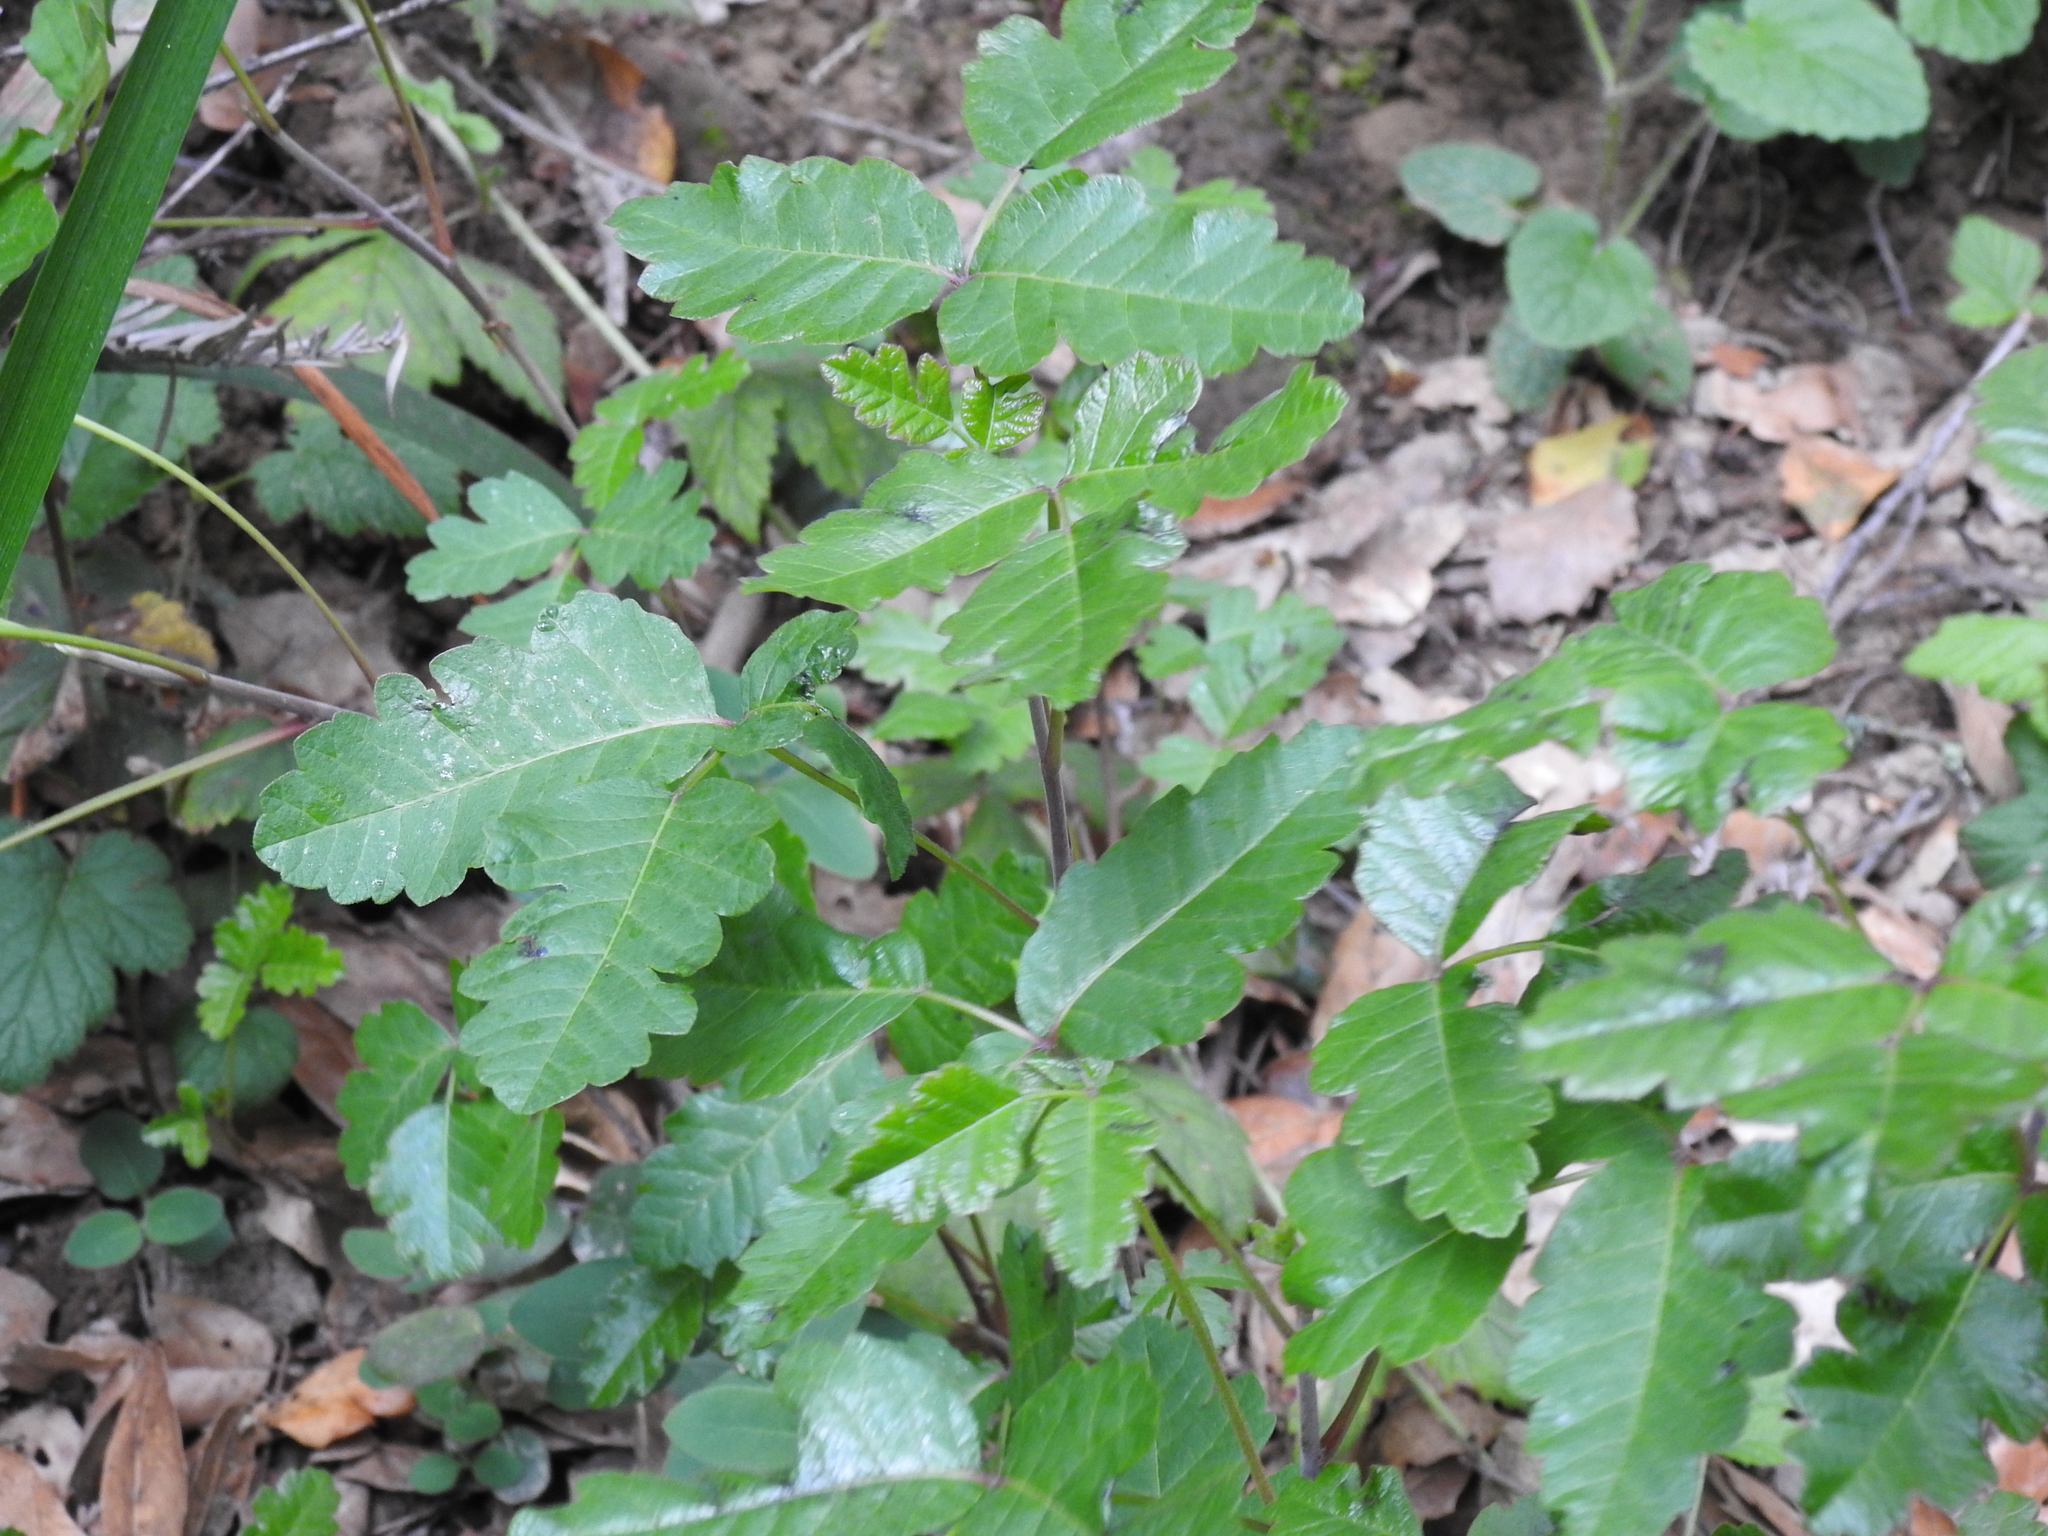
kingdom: Plantae
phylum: Tracheophyta
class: Magnoliopsida
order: Sapindales
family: Anacardiaceae
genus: Toxicodendron
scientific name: Toxicodendron diversilobum
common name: Pacific poison-oak
